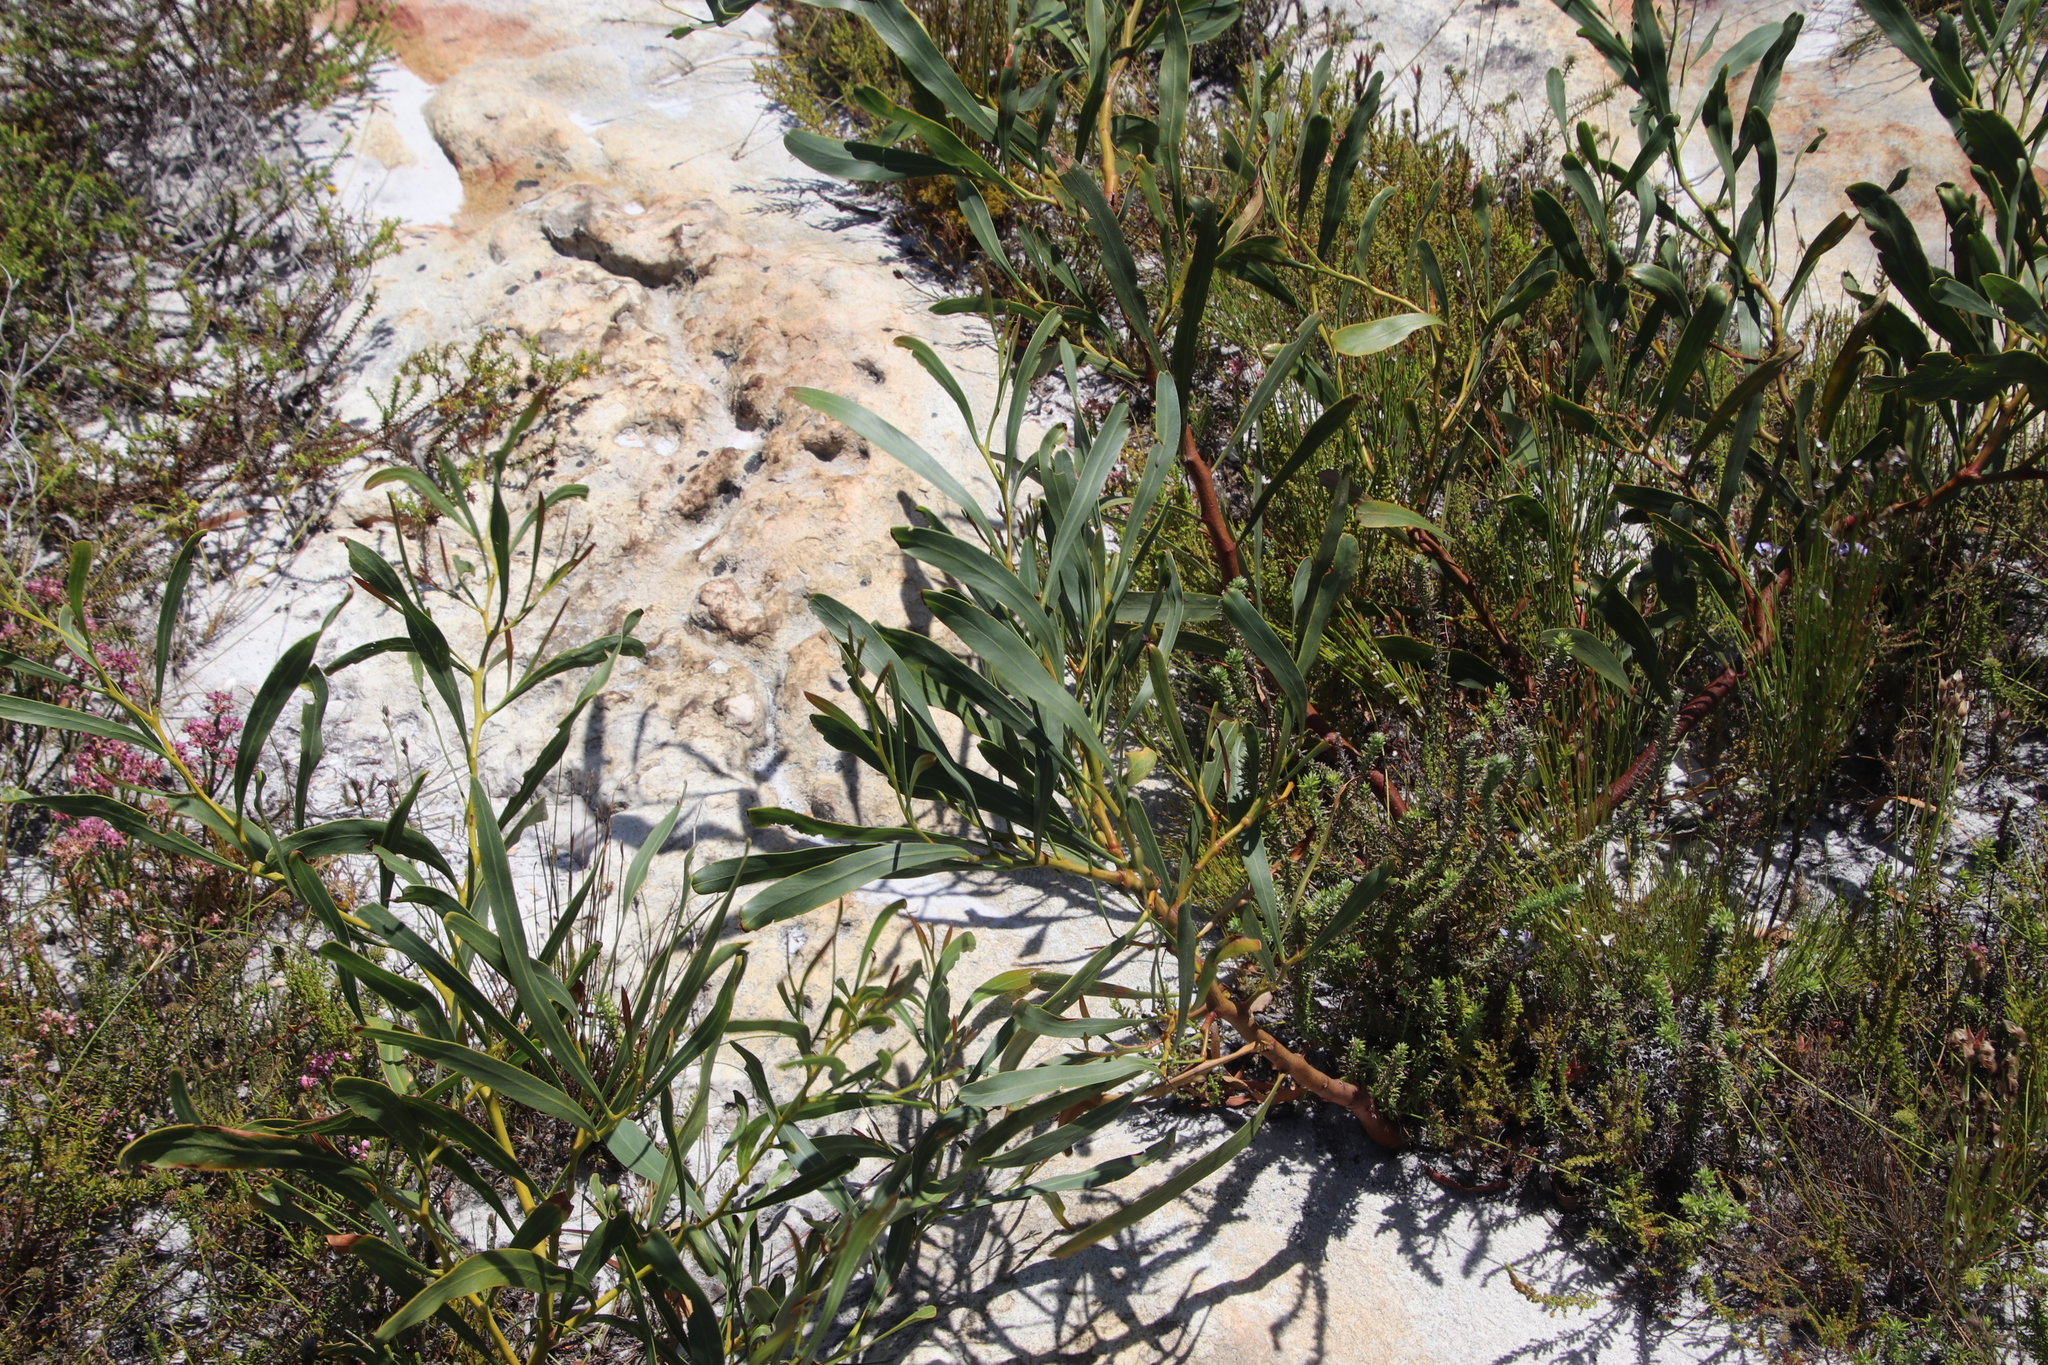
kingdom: Plantae
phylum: Tracheophyta
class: Magnoliopsida
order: Fabales
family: Fabaceae
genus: Acacia
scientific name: Acacia saligna
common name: Orange wattle
